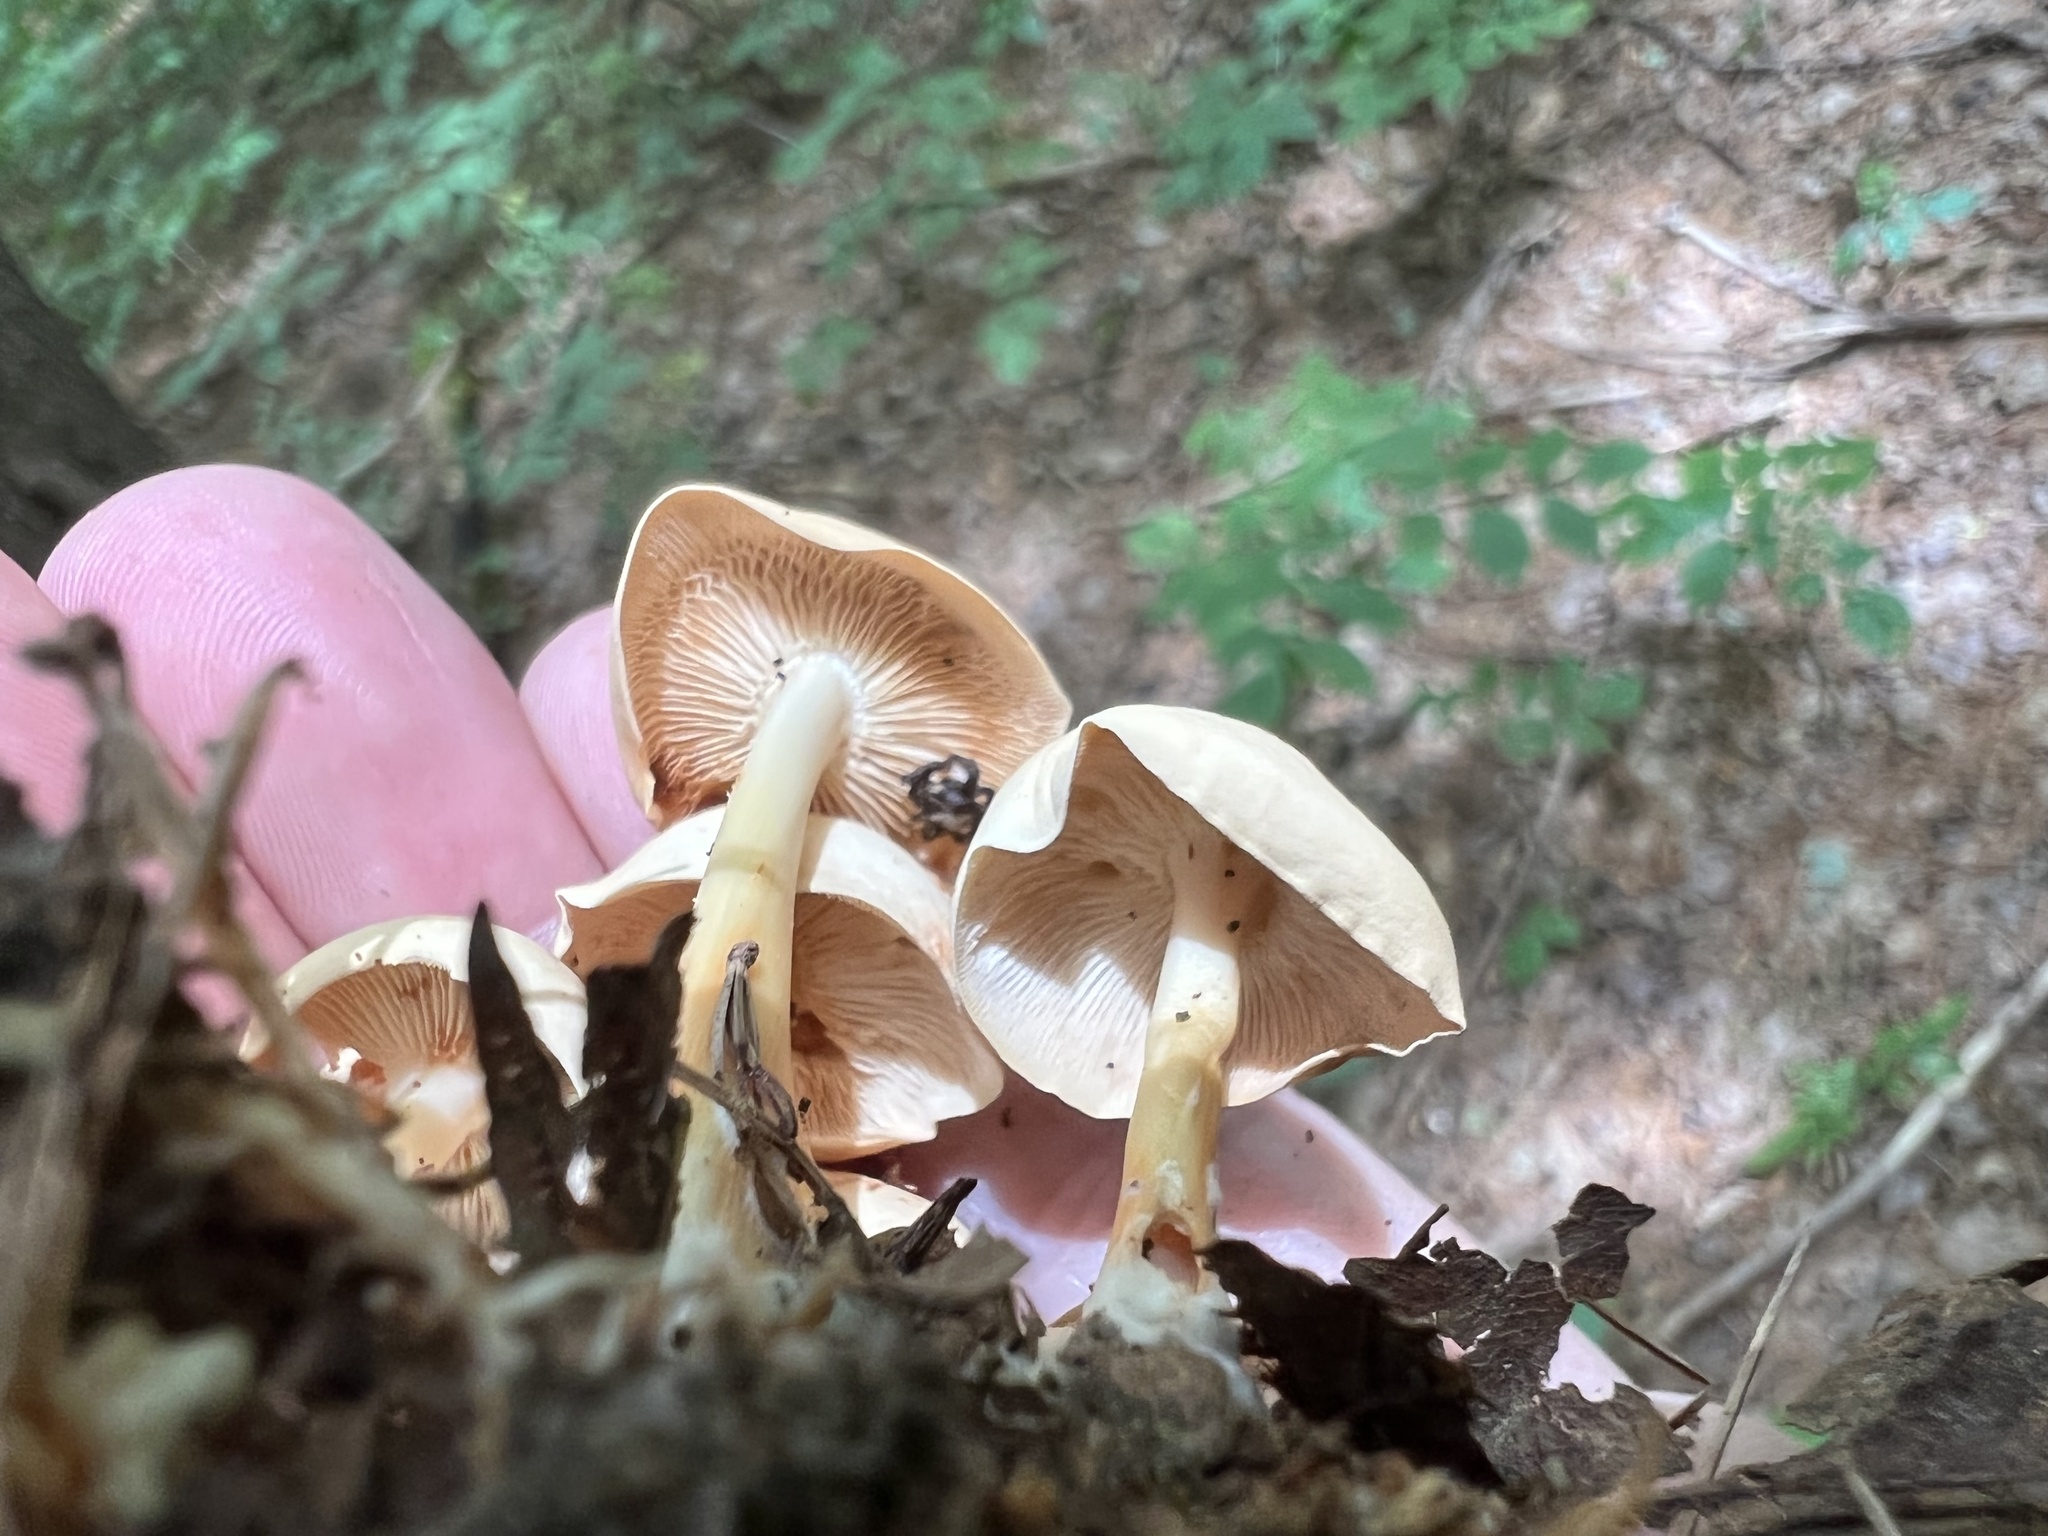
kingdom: Fungi
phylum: Basidiomycota
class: Agaricomycetes
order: Agaricales
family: Omphalotaceae
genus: Gymnopus
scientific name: Gymnopus dryophilus
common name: Penny top
